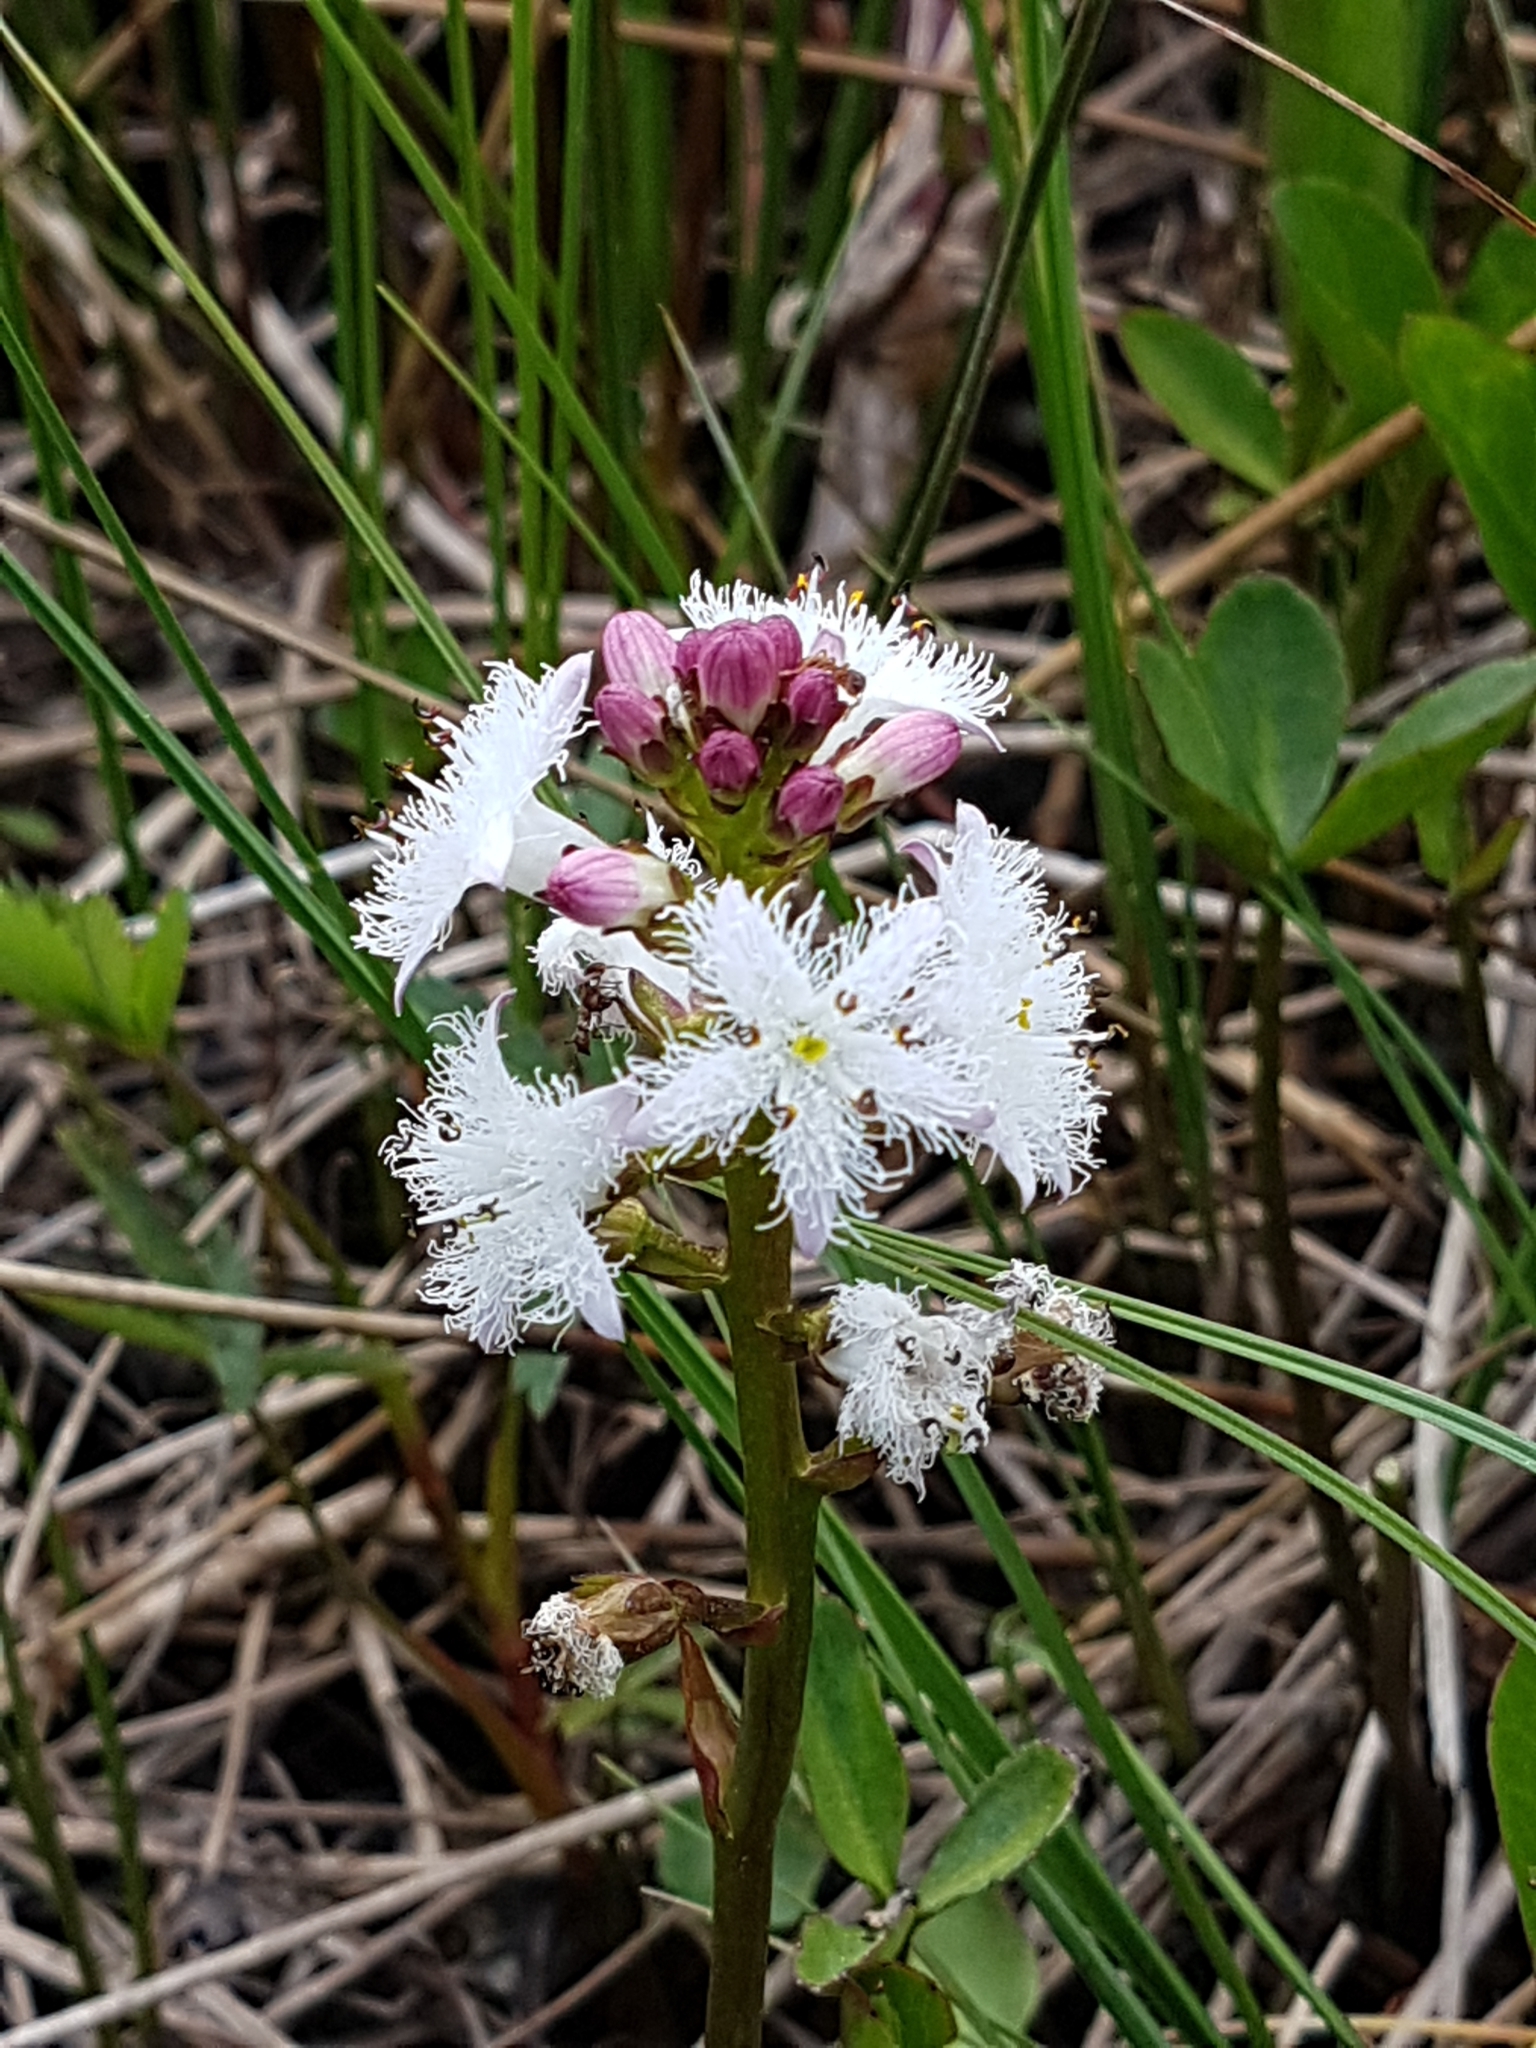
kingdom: Plantae
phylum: Tracheophyta
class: Magnoliopsida
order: Asterales
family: Menyanthaceae
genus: Menyanthes
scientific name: Menyanthes trifoliata
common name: Bogbean
